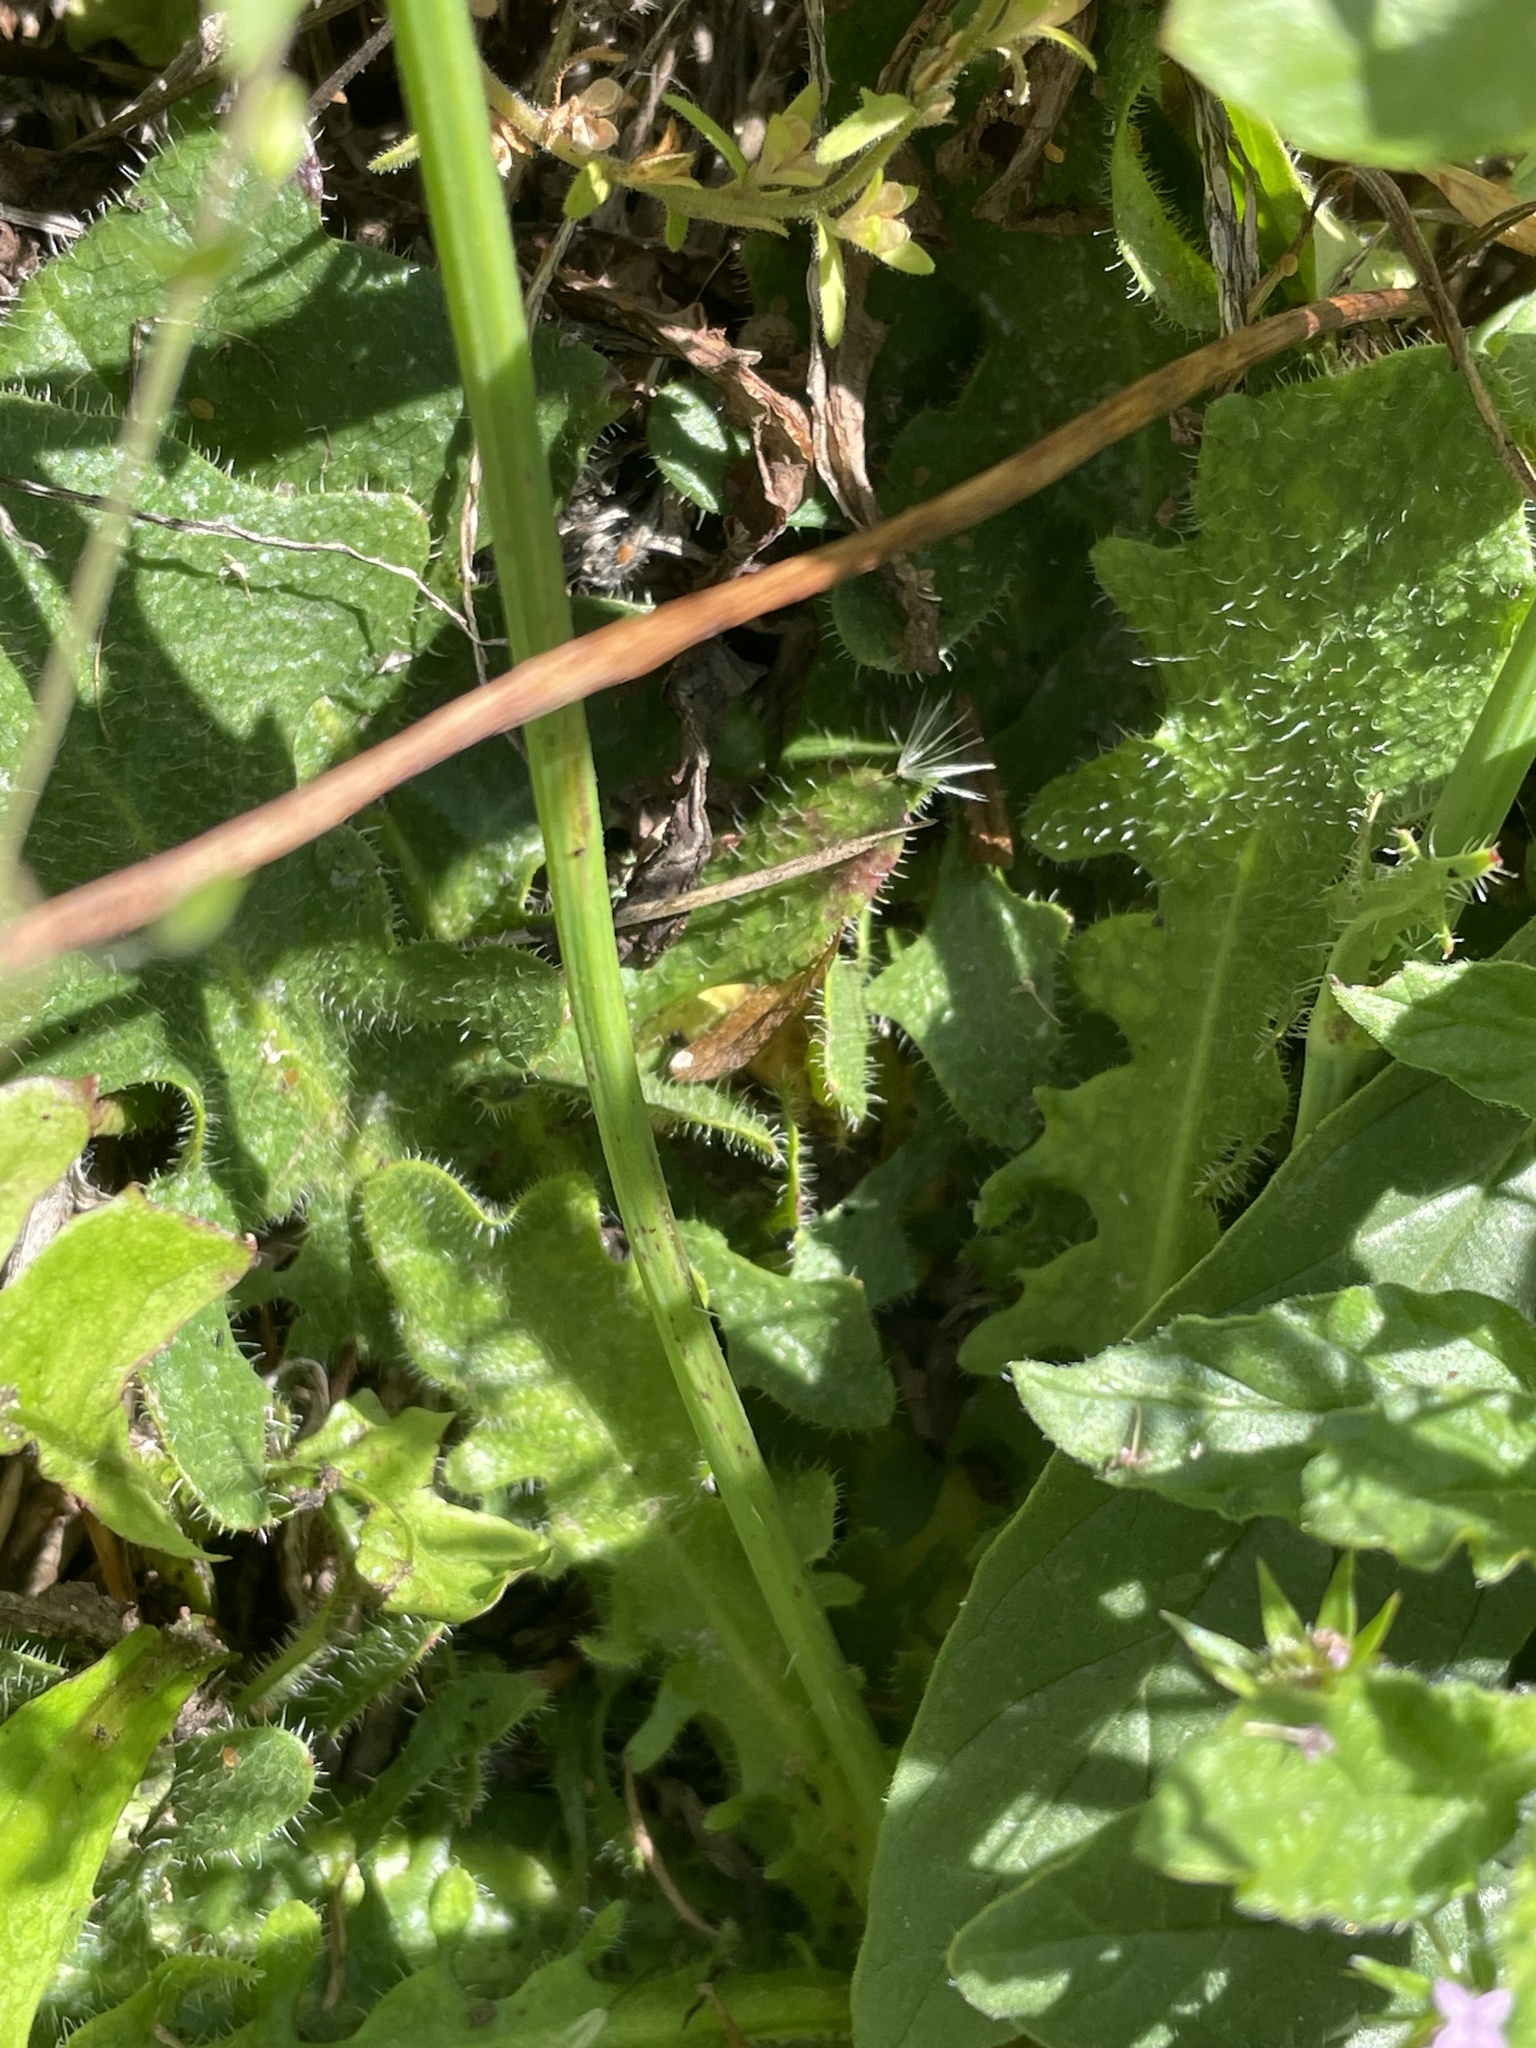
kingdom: Plantae
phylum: Tracheophyta
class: Magnoliopsida
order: Asterales
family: Asteraceae
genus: Hypochaeris
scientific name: Hypochaeris radicata
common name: Flatweed
